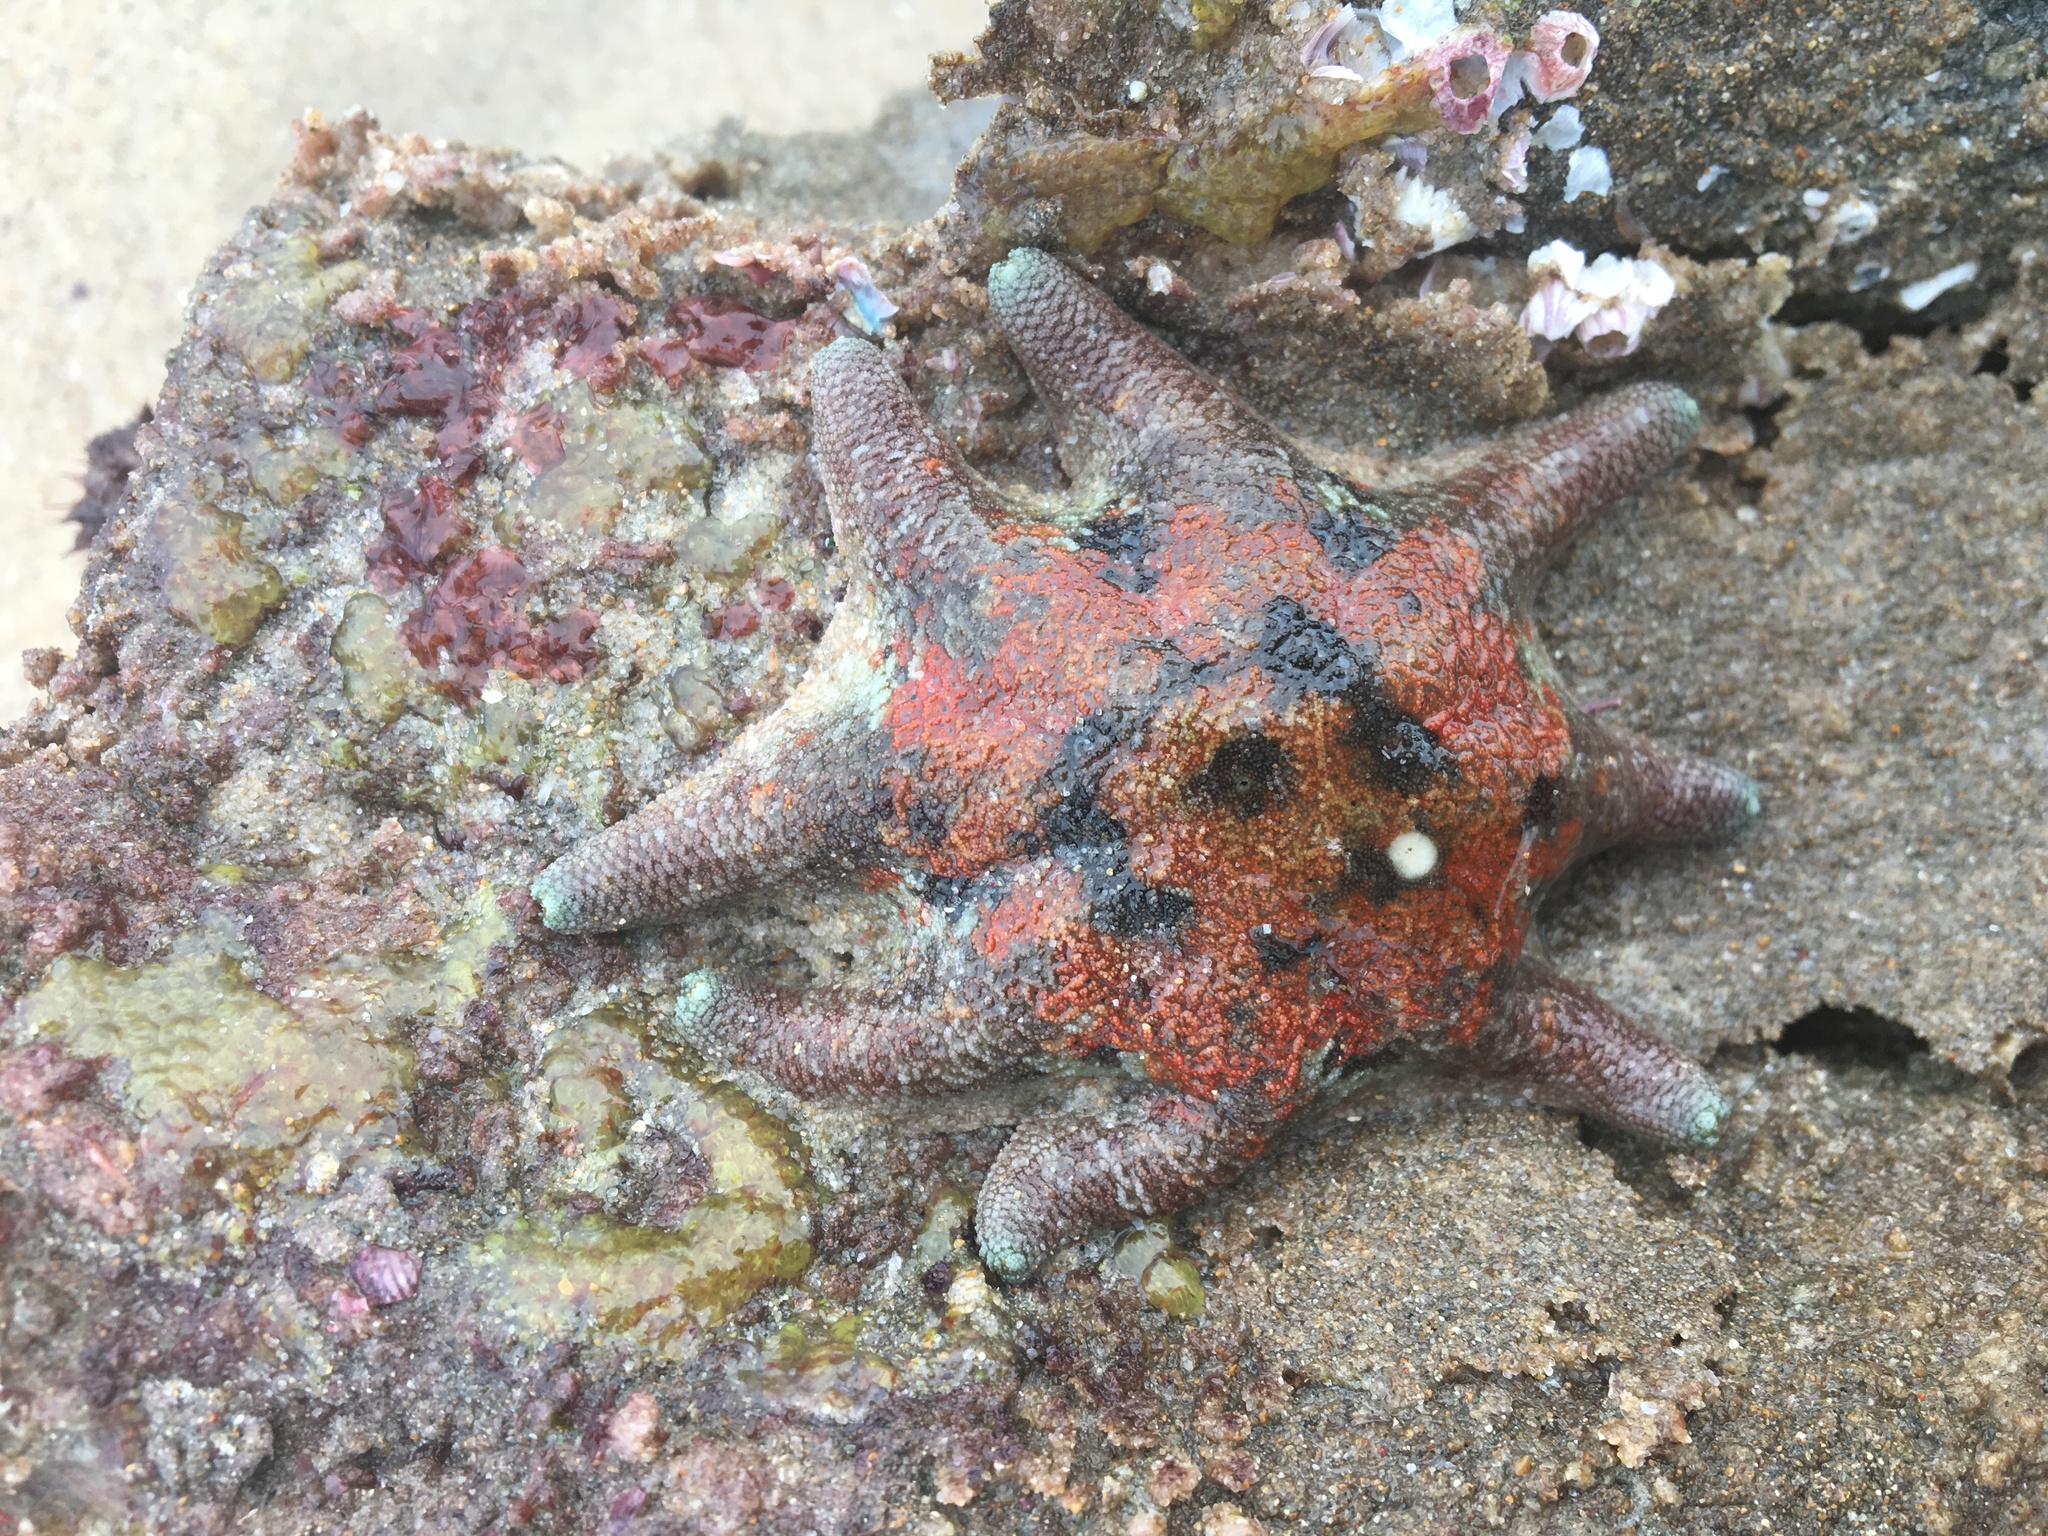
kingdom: Animalia
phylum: Echinodermata
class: Asteroidea
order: Valvatida
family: Asterinidae
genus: Meridiastra
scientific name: Meridiastra calcar
